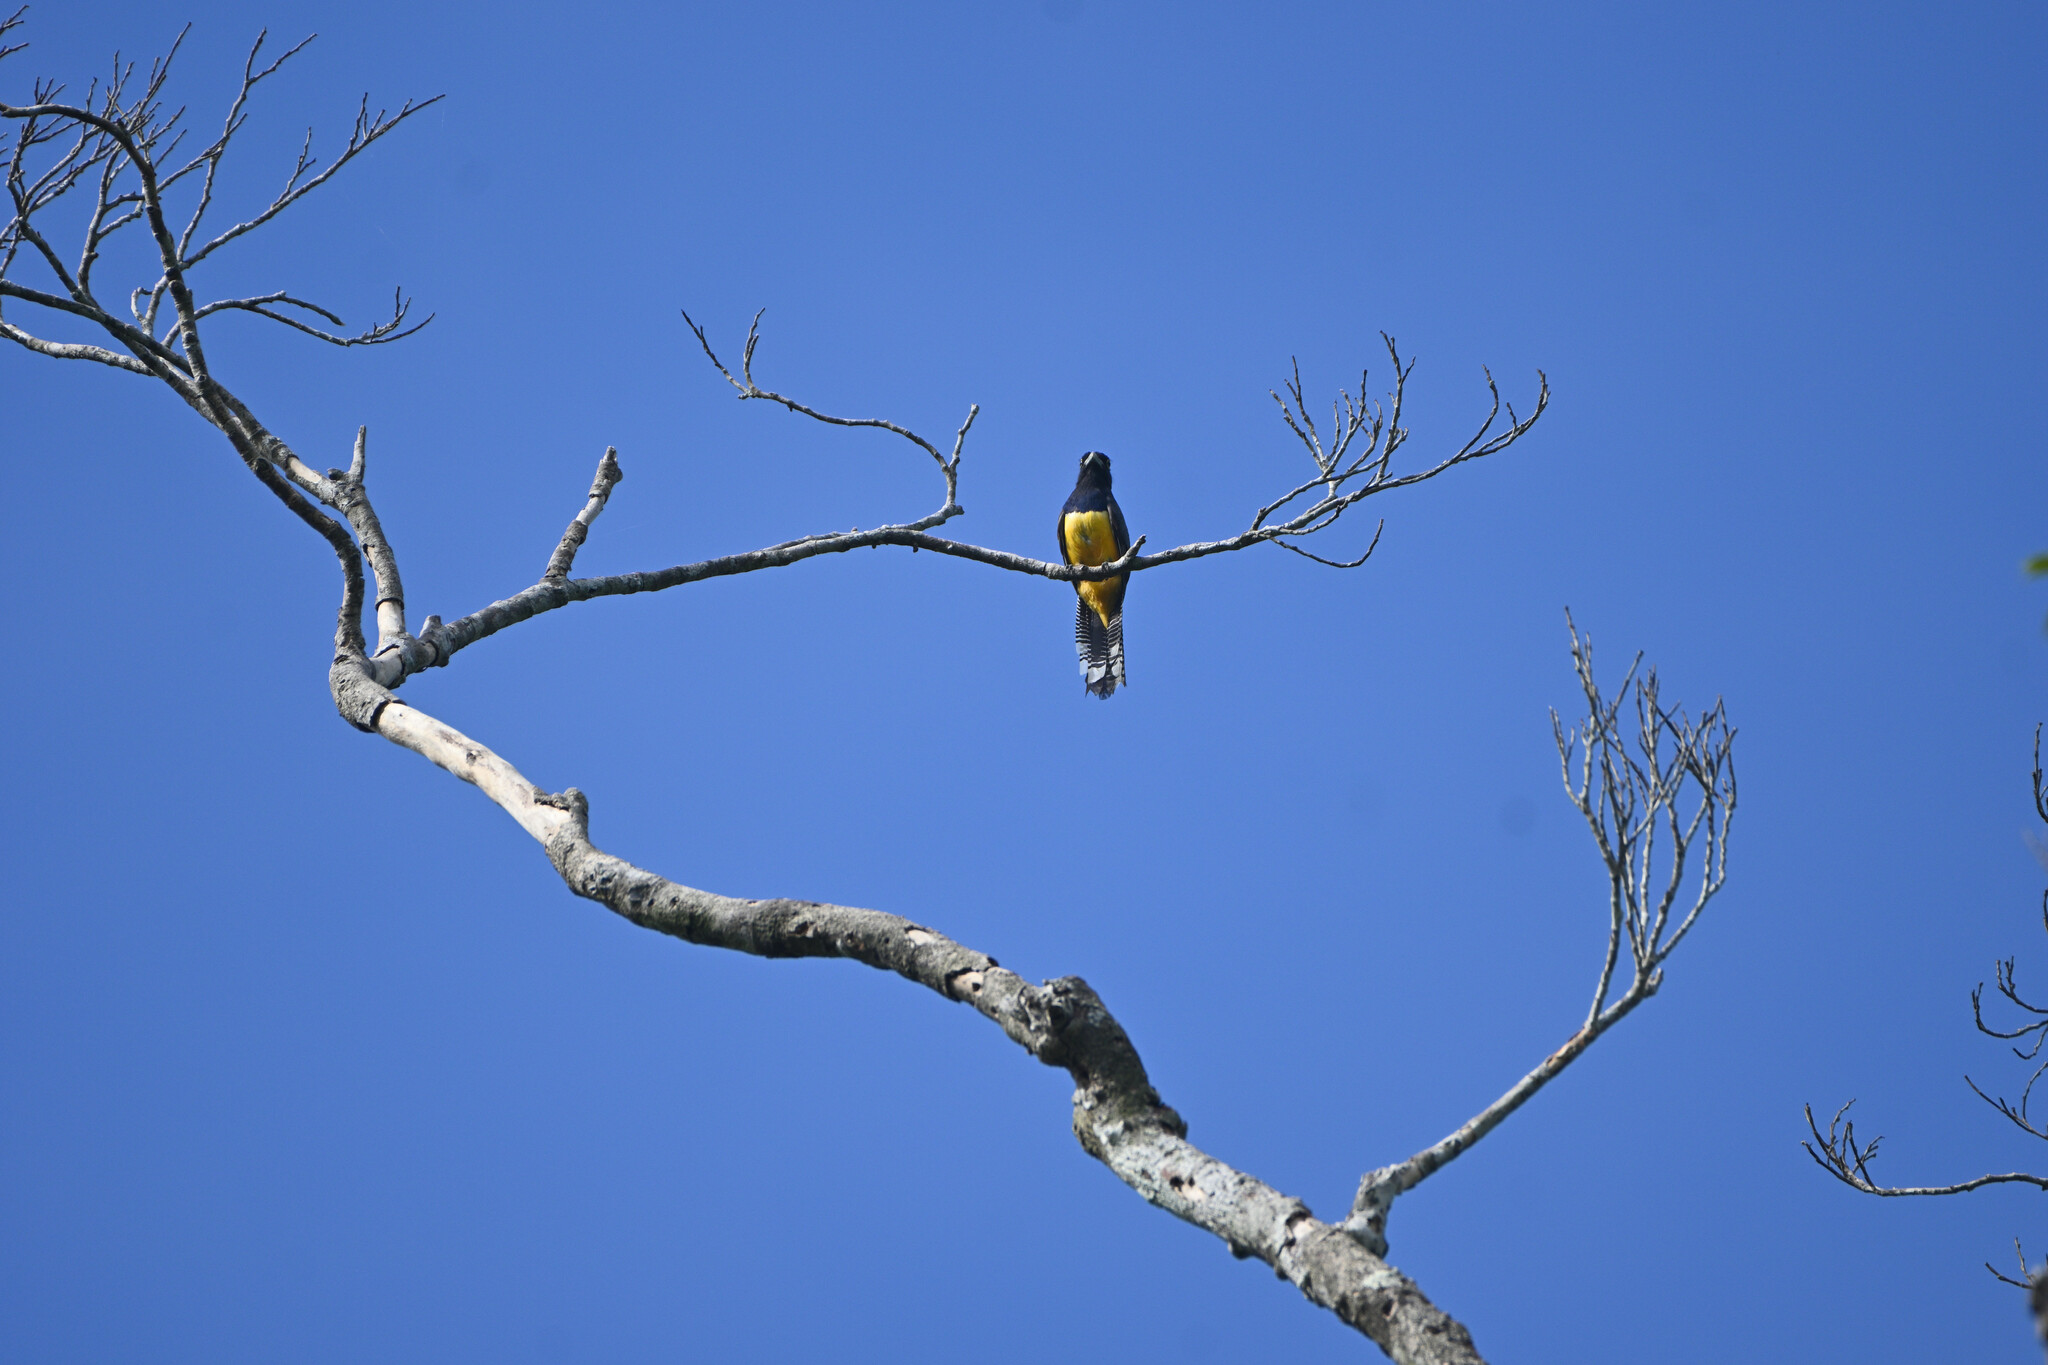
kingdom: Animalia
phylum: Chordata
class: Aves
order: Trogoniformes
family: Trogonidae
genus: Trogon
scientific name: Trogon caligatus
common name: Gartered trogon
